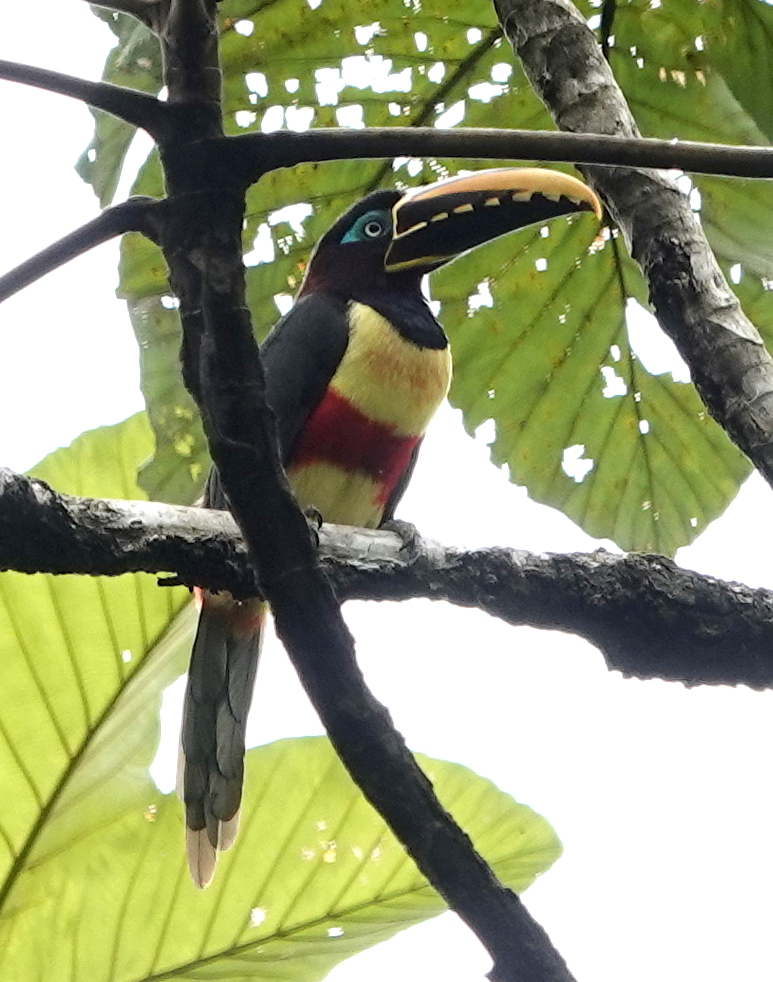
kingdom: Animalia
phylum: Chordata
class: Aves
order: Piciformes
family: Ramphastidae
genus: Pteroglossus
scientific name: Pteroglossus castanotis
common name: Chestnut-eared aracari
